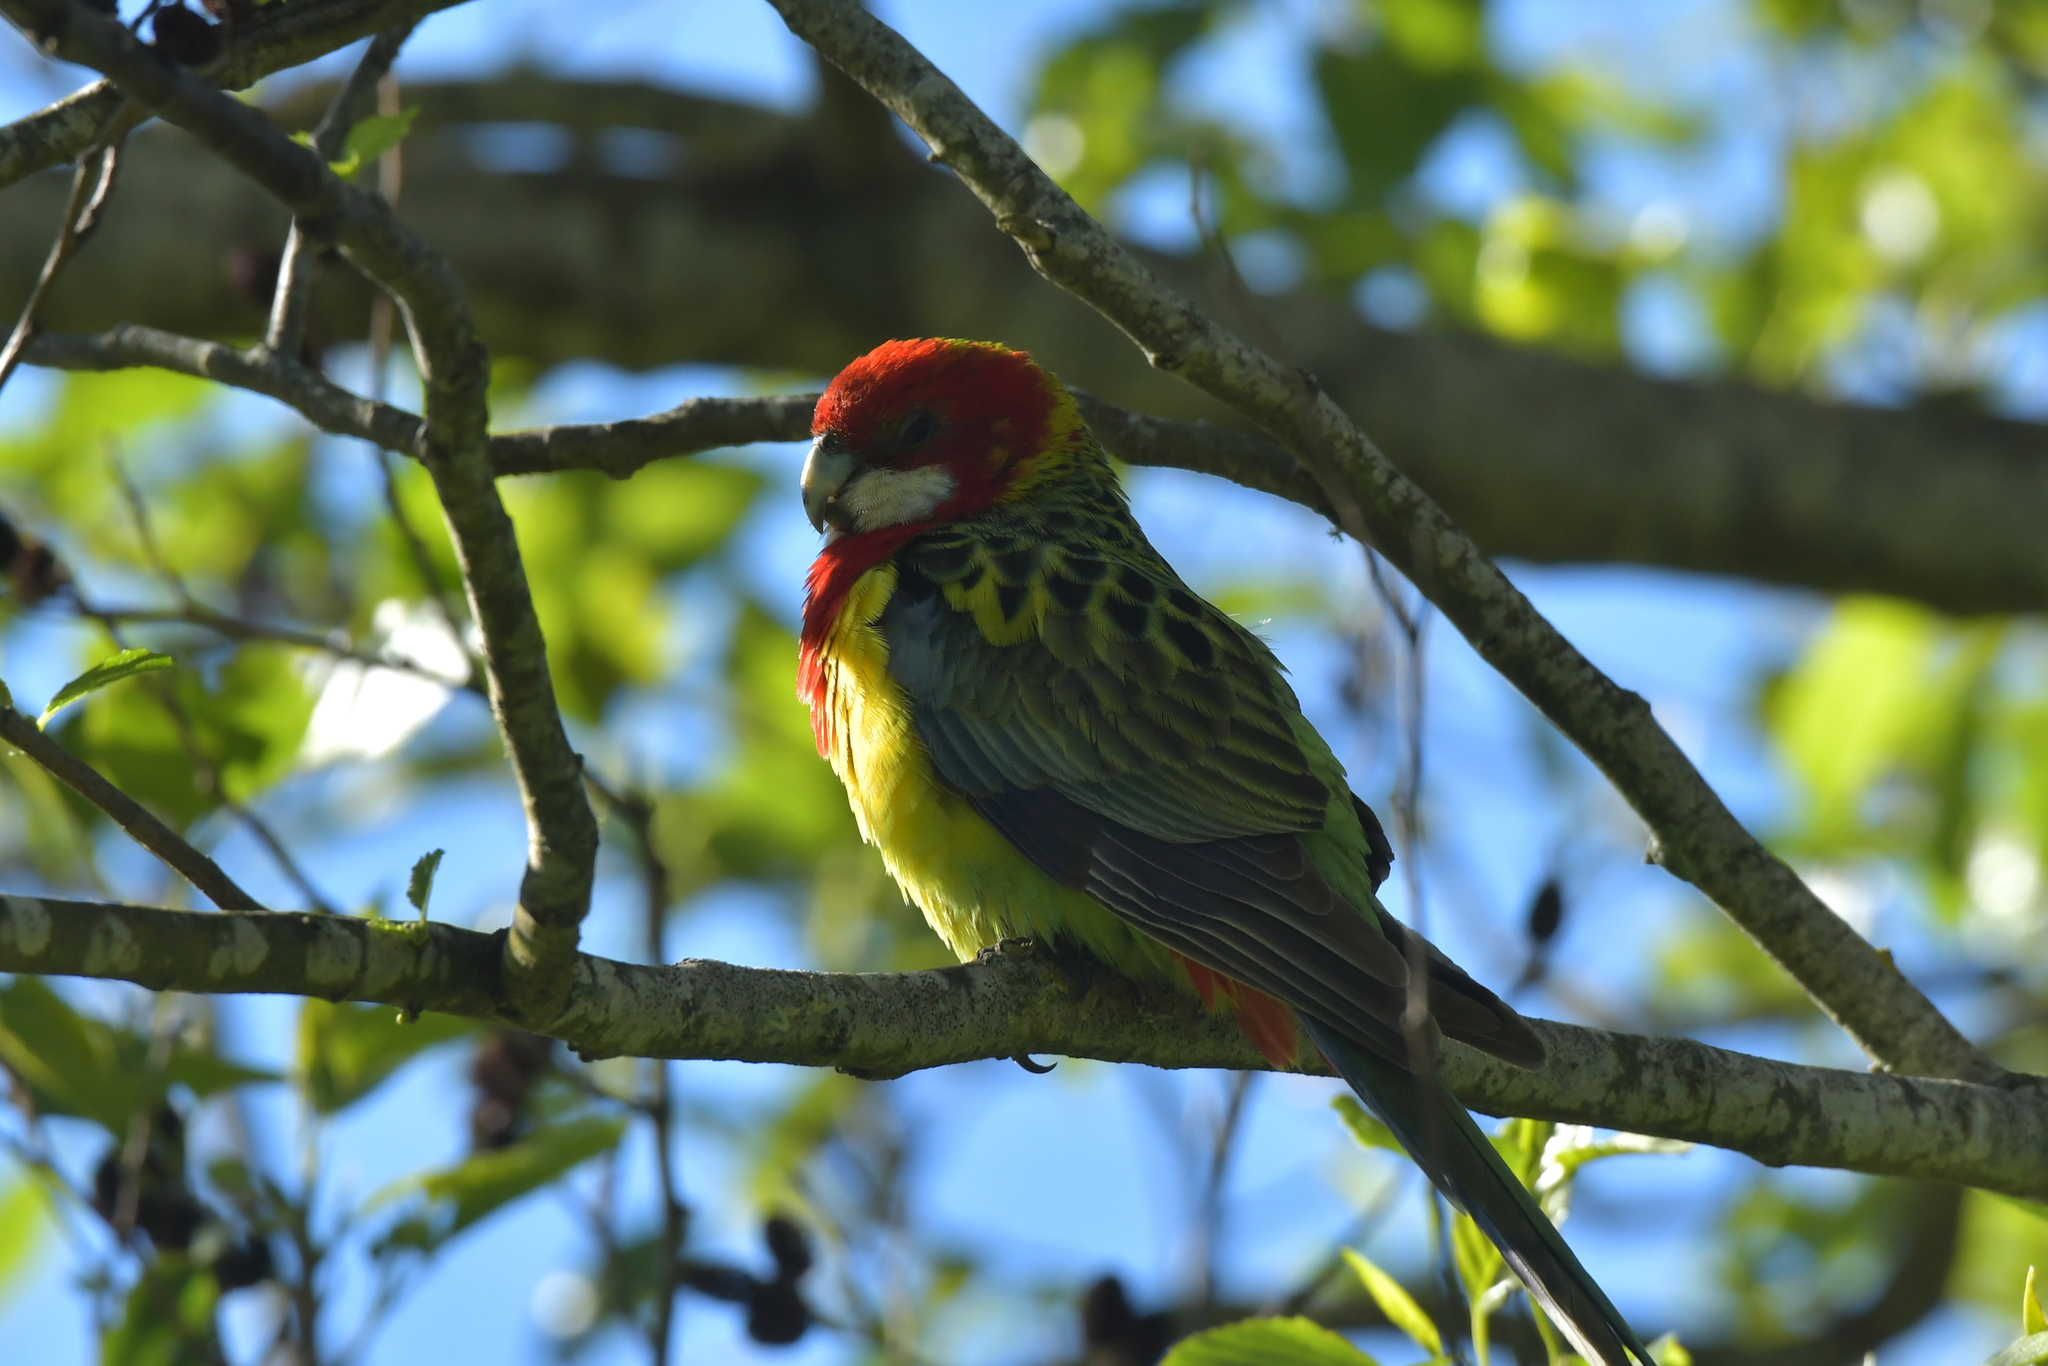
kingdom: Animalia
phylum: Chordata
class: Aves
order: Psittaciformes
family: Psittacidae
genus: Platycercus
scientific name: Platycercus eximius
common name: Eastern rosella
